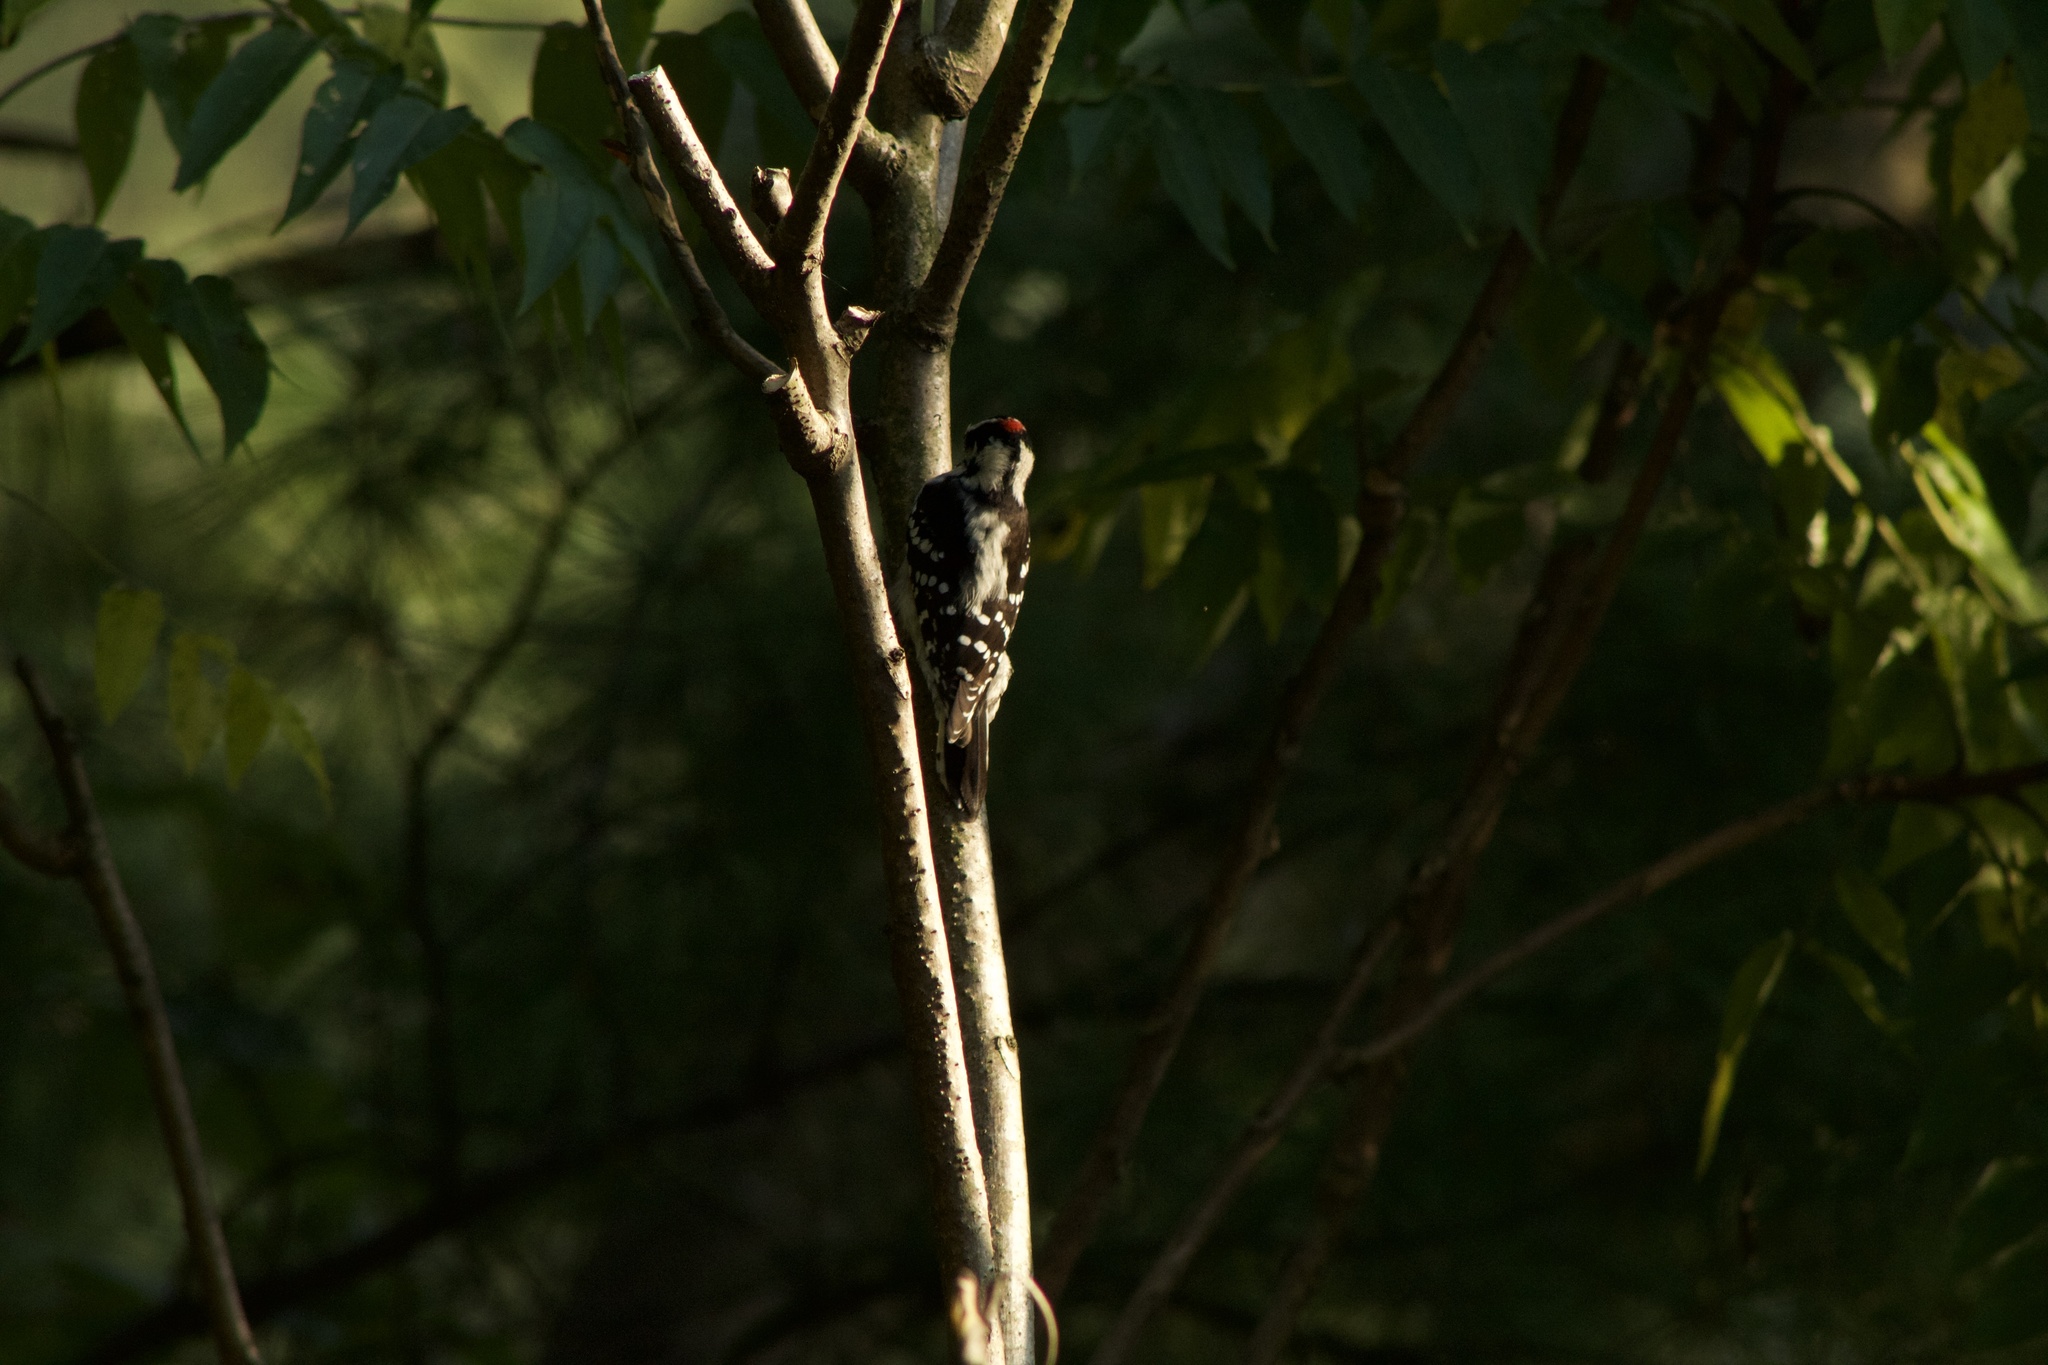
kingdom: Animalia
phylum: Chordata
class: Aves
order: Piciformes
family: Picidae
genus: Dryobates
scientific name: Dryobates pubescens
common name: Downy woodpecker
